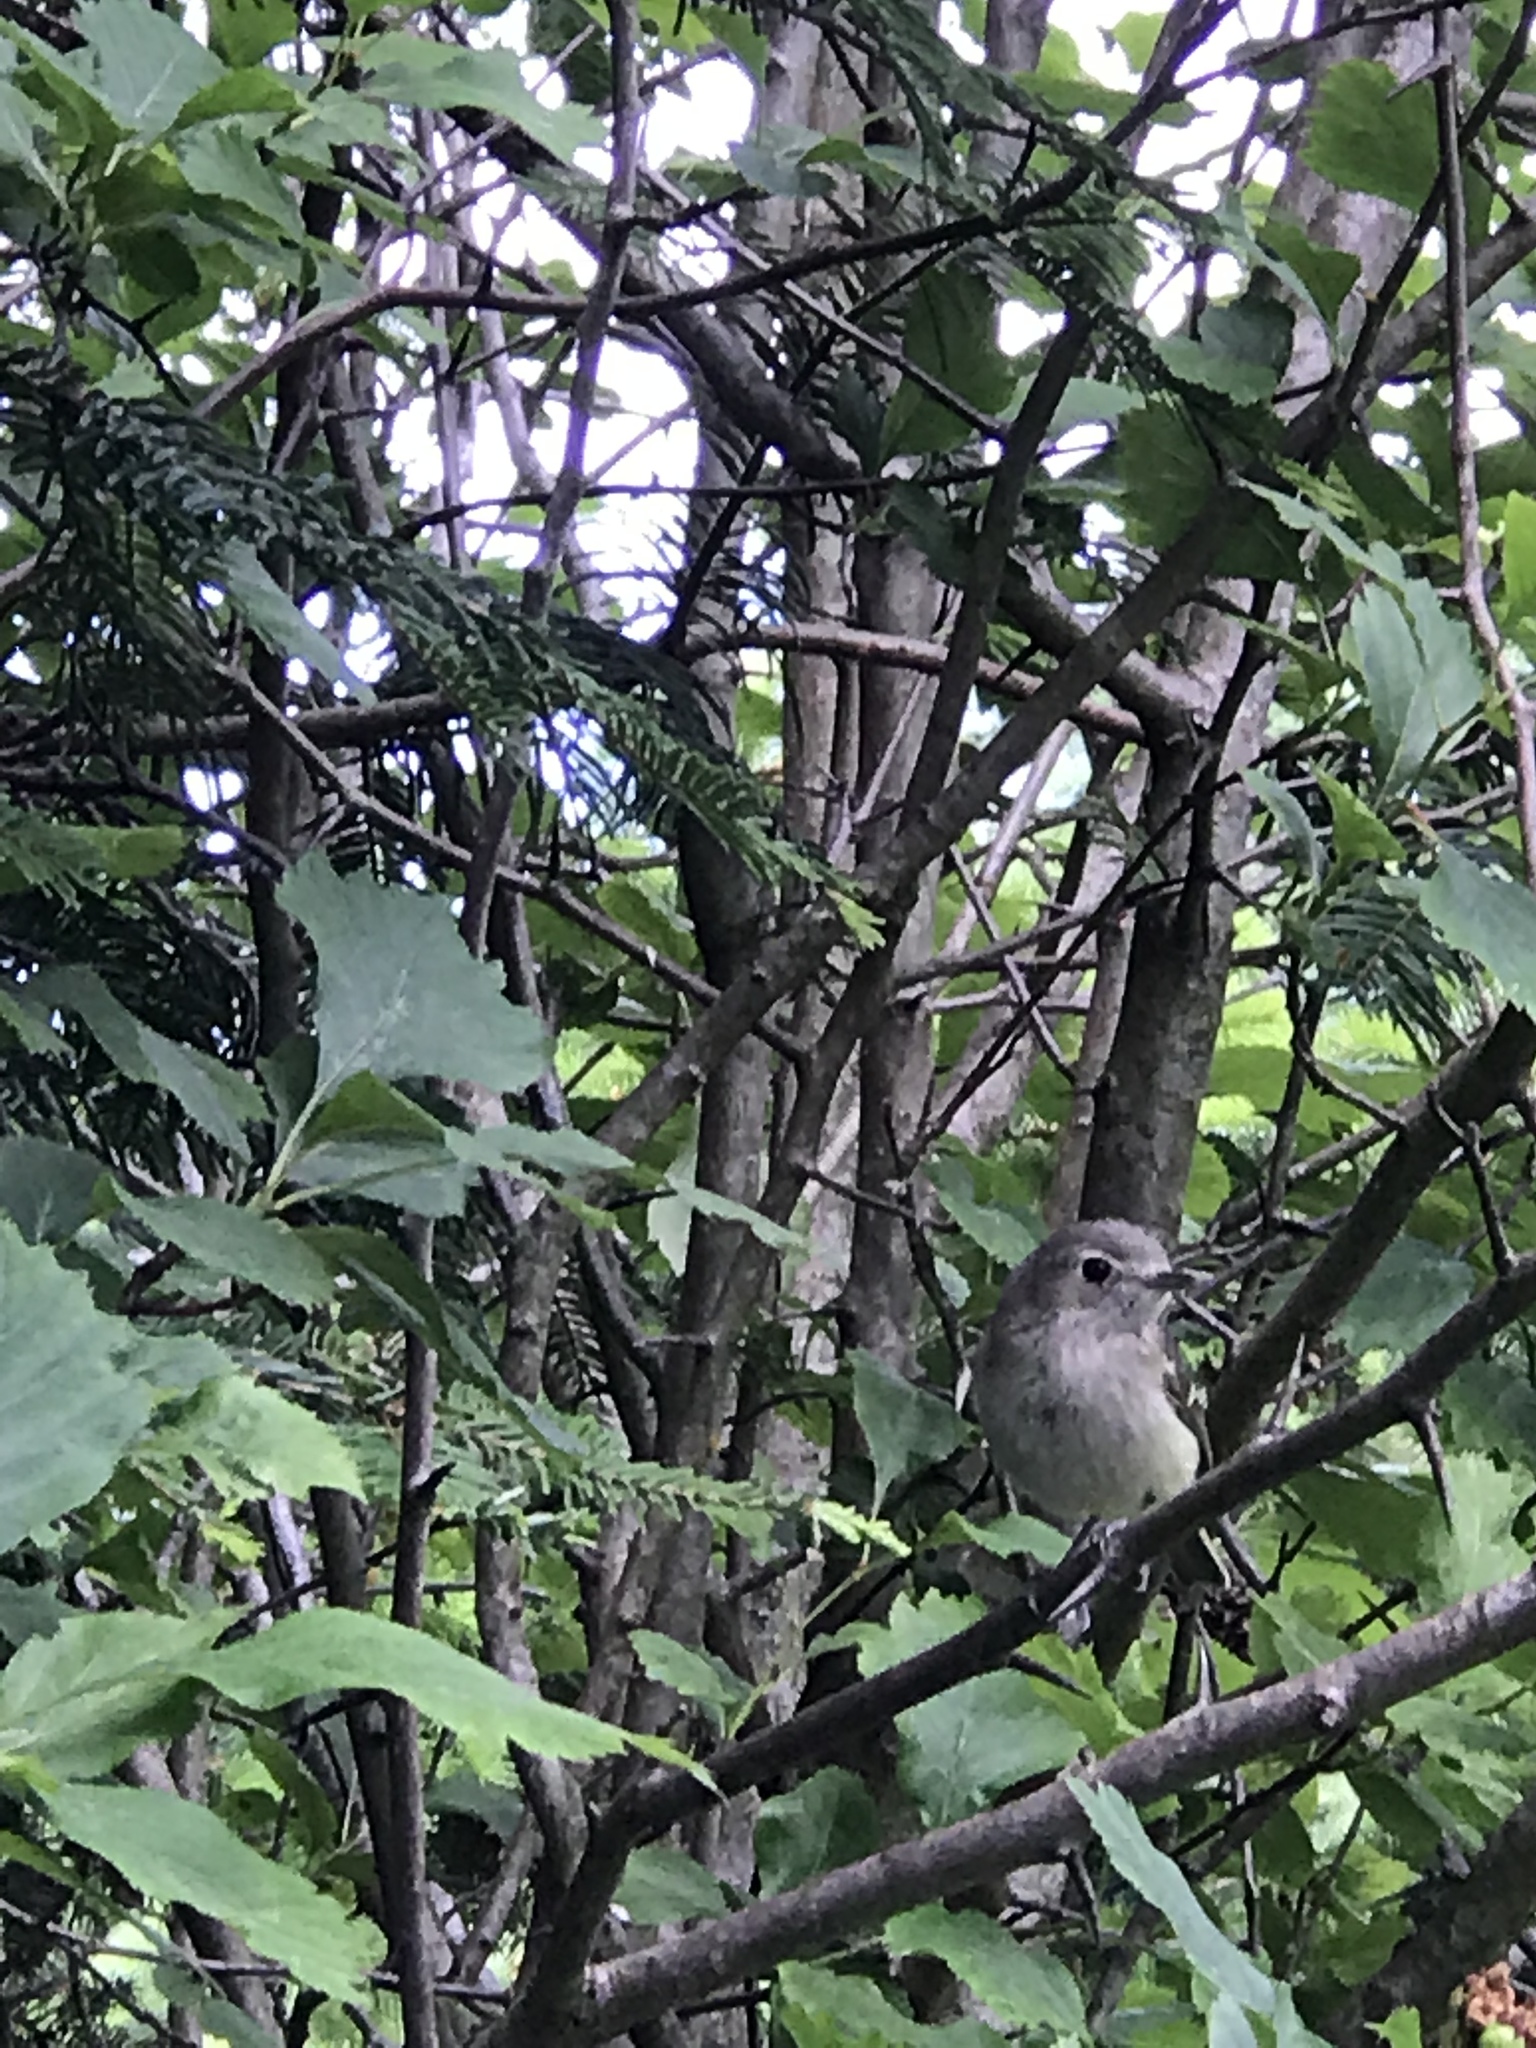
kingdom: Animalia
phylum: Chordata
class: Aves
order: Passeriformes
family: Vireonidae
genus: Vireo
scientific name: Vireo huttoni
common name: Hutton's vireo
